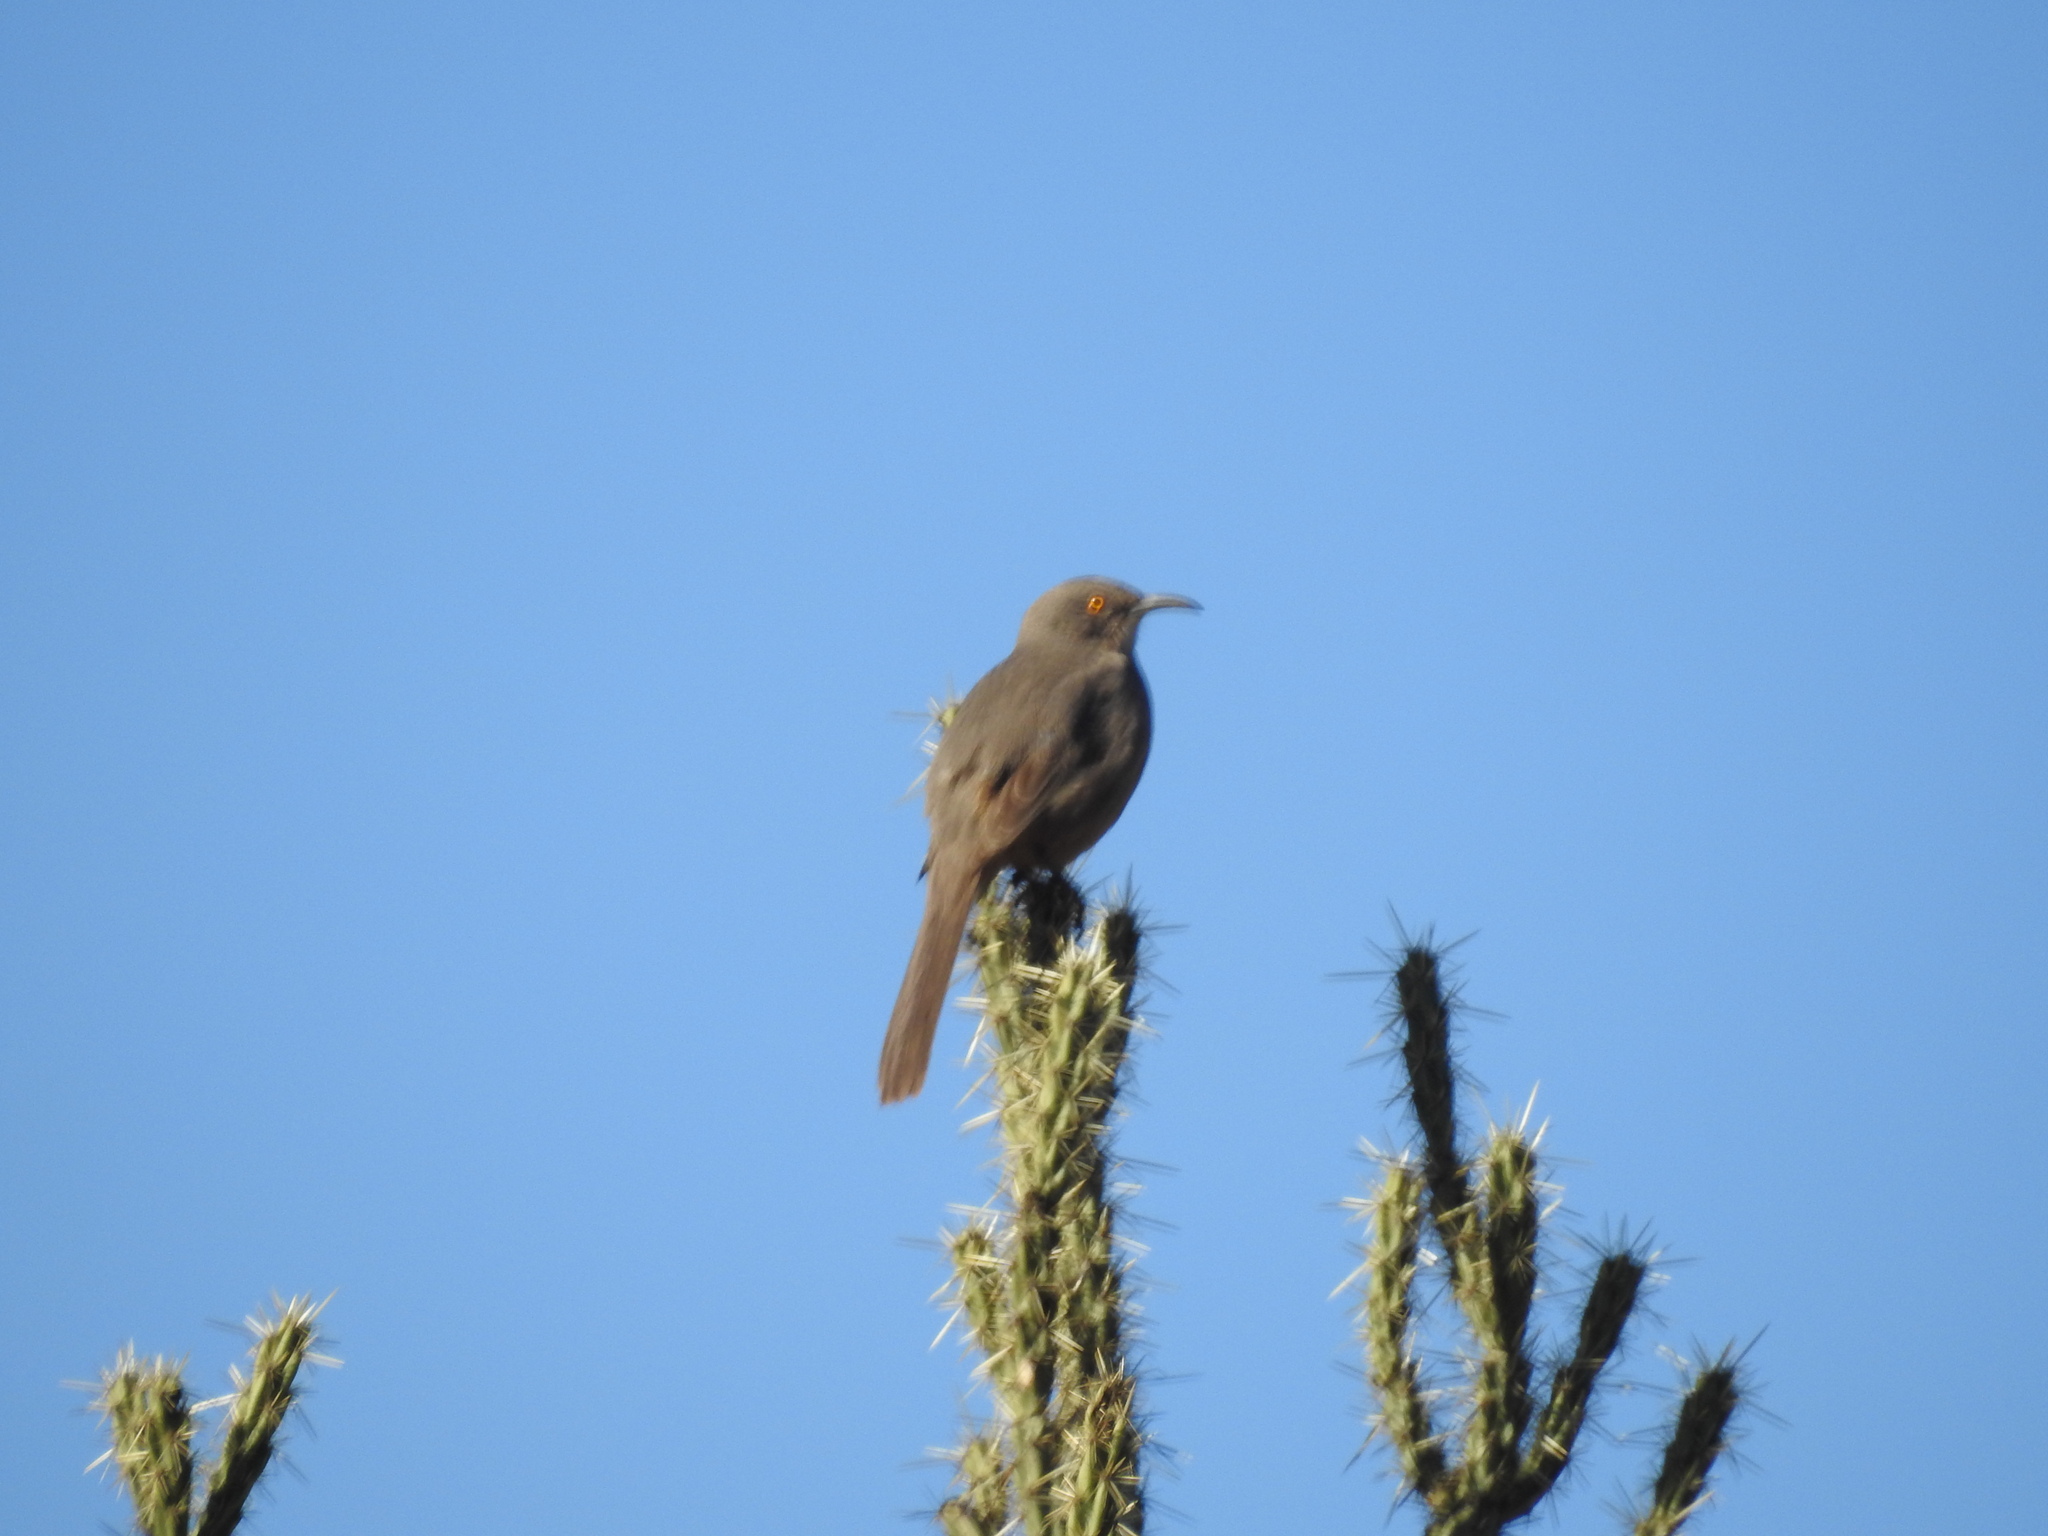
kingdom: Animalia
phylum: Chordata
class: Aves
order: Passeriformes
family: Mimidae
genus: Toxostoma
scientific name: Toxostoma curvirostre
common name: Curve-billed thrasher
